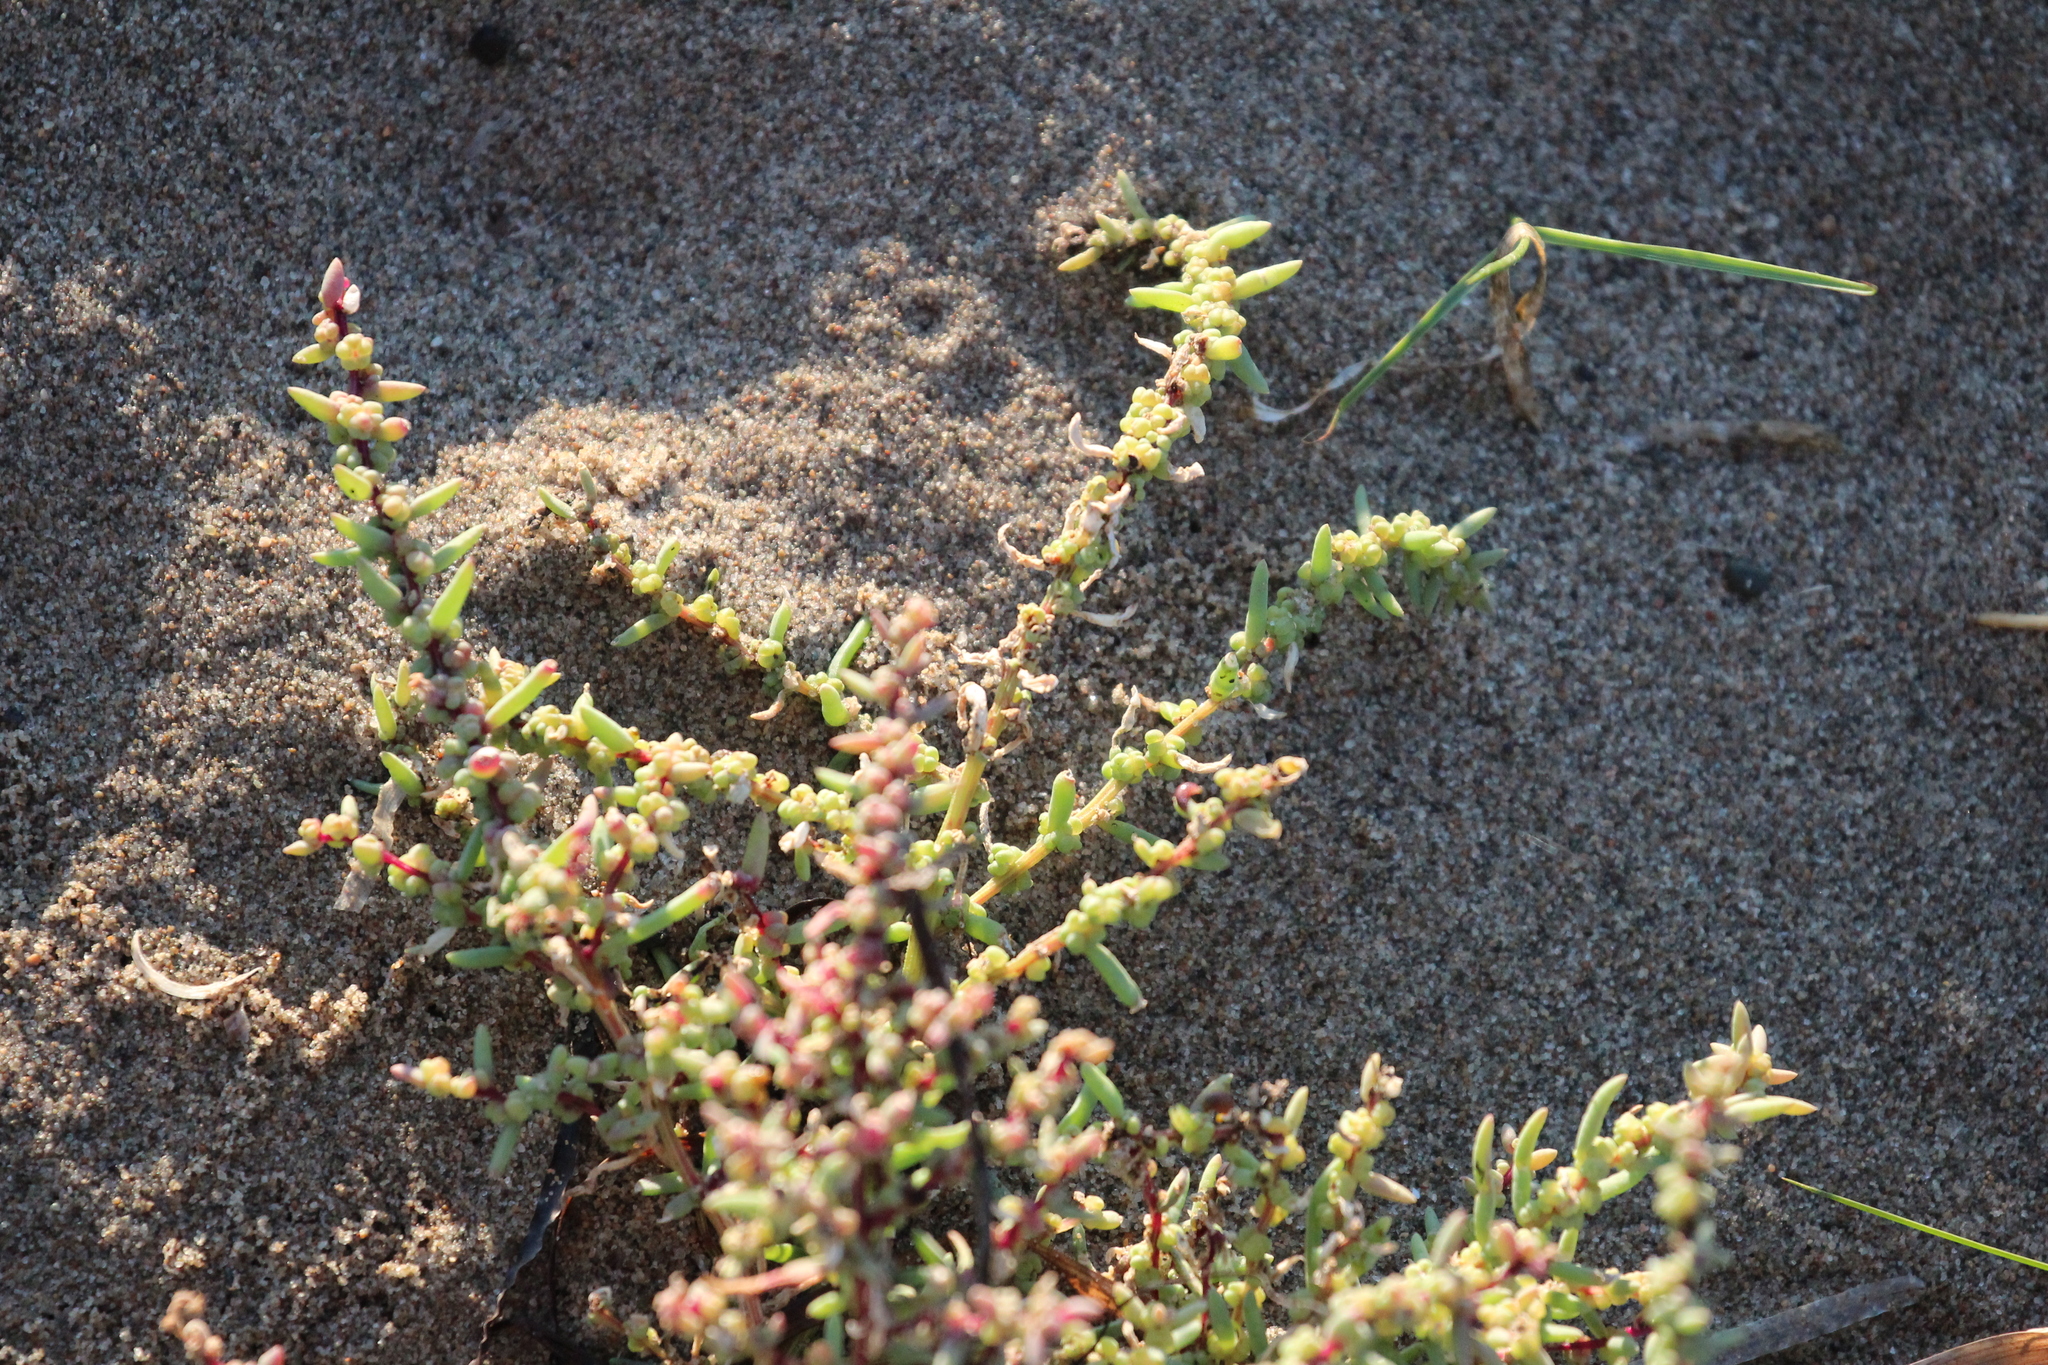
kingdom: Plantae
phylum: Tracheophyta
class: Magnoliopsida
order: Caryophyllales
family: Amaranthaceae
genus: Suaeda
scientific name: Suaeda maritima
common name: Annual sea-blite
